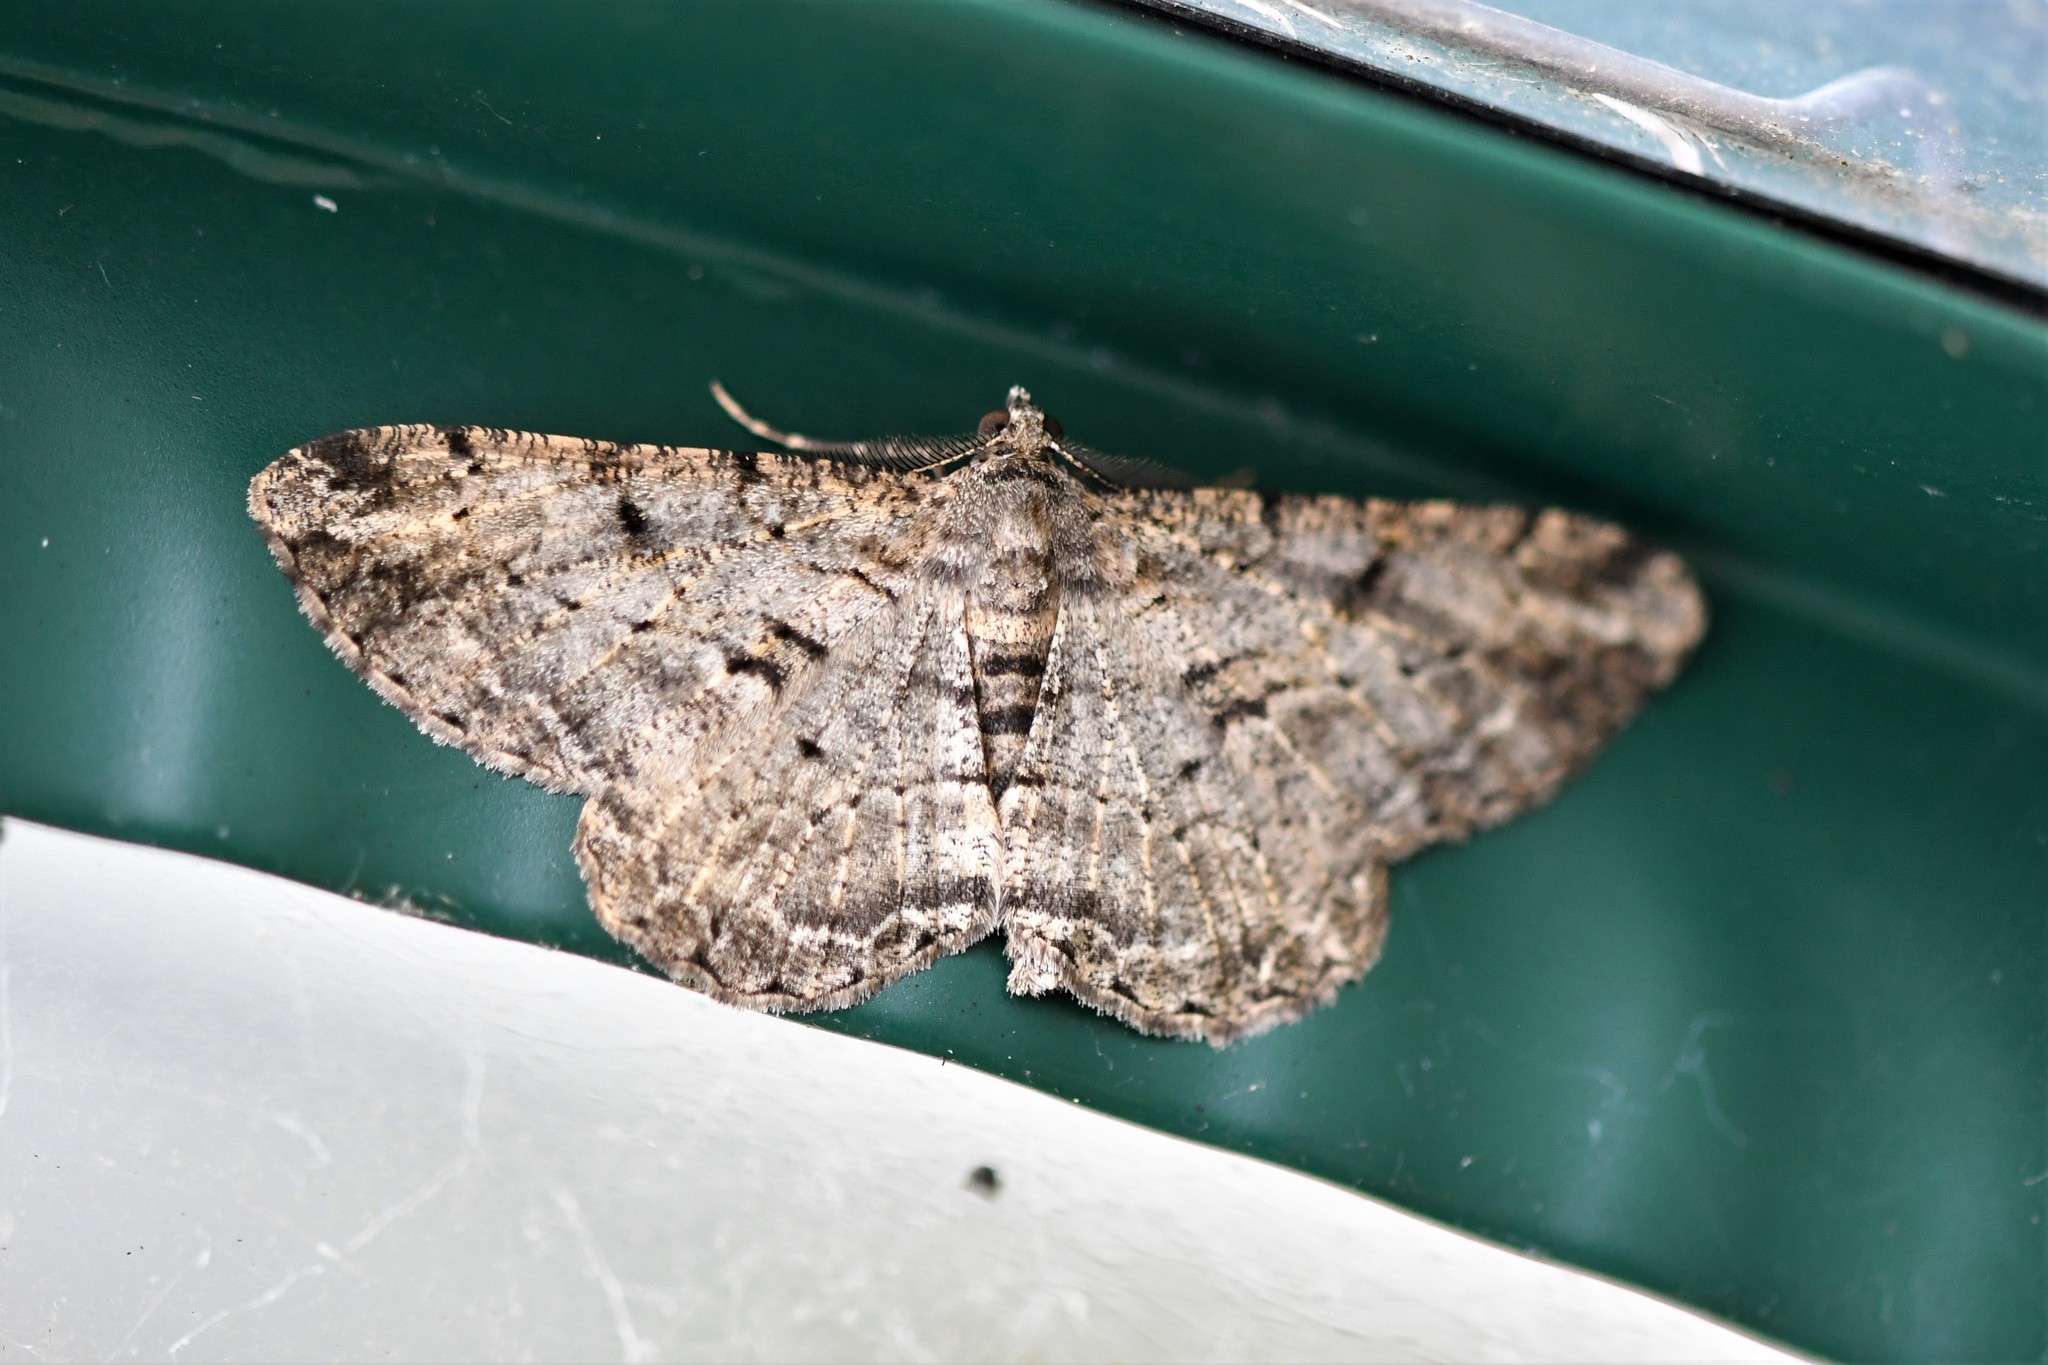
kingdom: Animalia
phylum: Arthropoda
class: Insecta
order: Lepidoptera
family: Geometridae
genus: Peribatodes
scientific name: Peribatodes rhomboidaria
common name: Willow beauty
